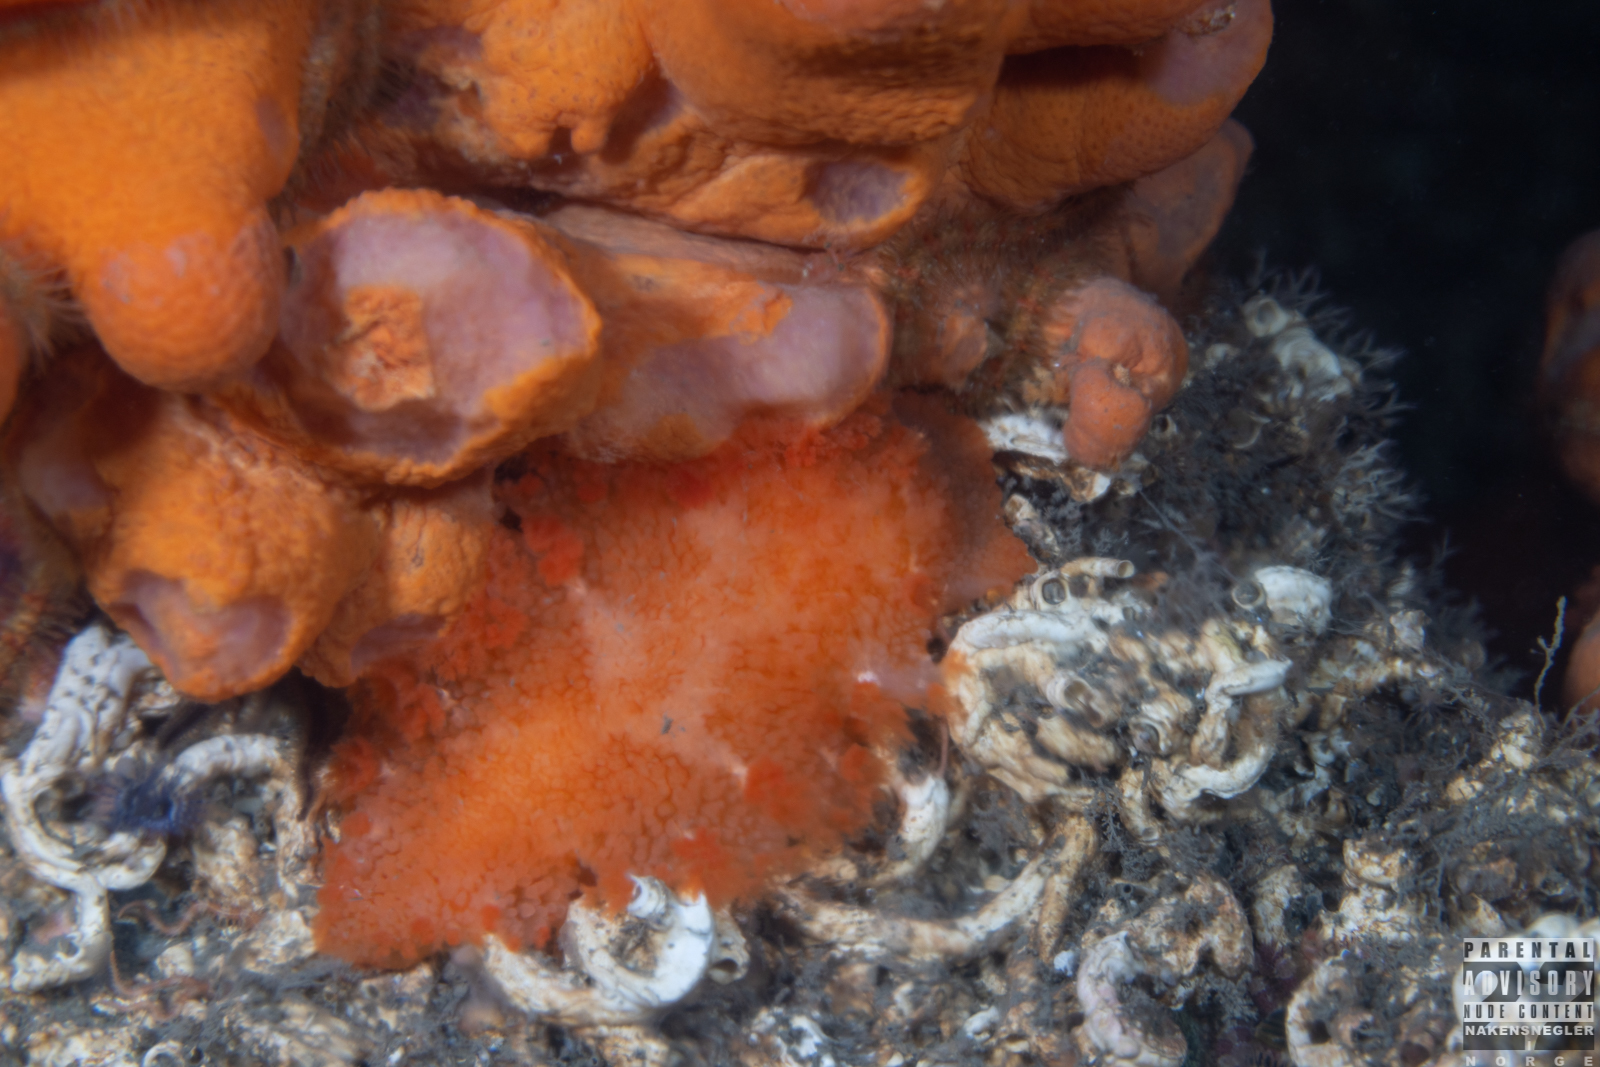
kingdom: Animalia
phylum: Mollusca
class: Gastropoda
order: Nudibranchia
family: Tritoniidae
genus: Tritonia
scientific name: Tritonia hombergii
